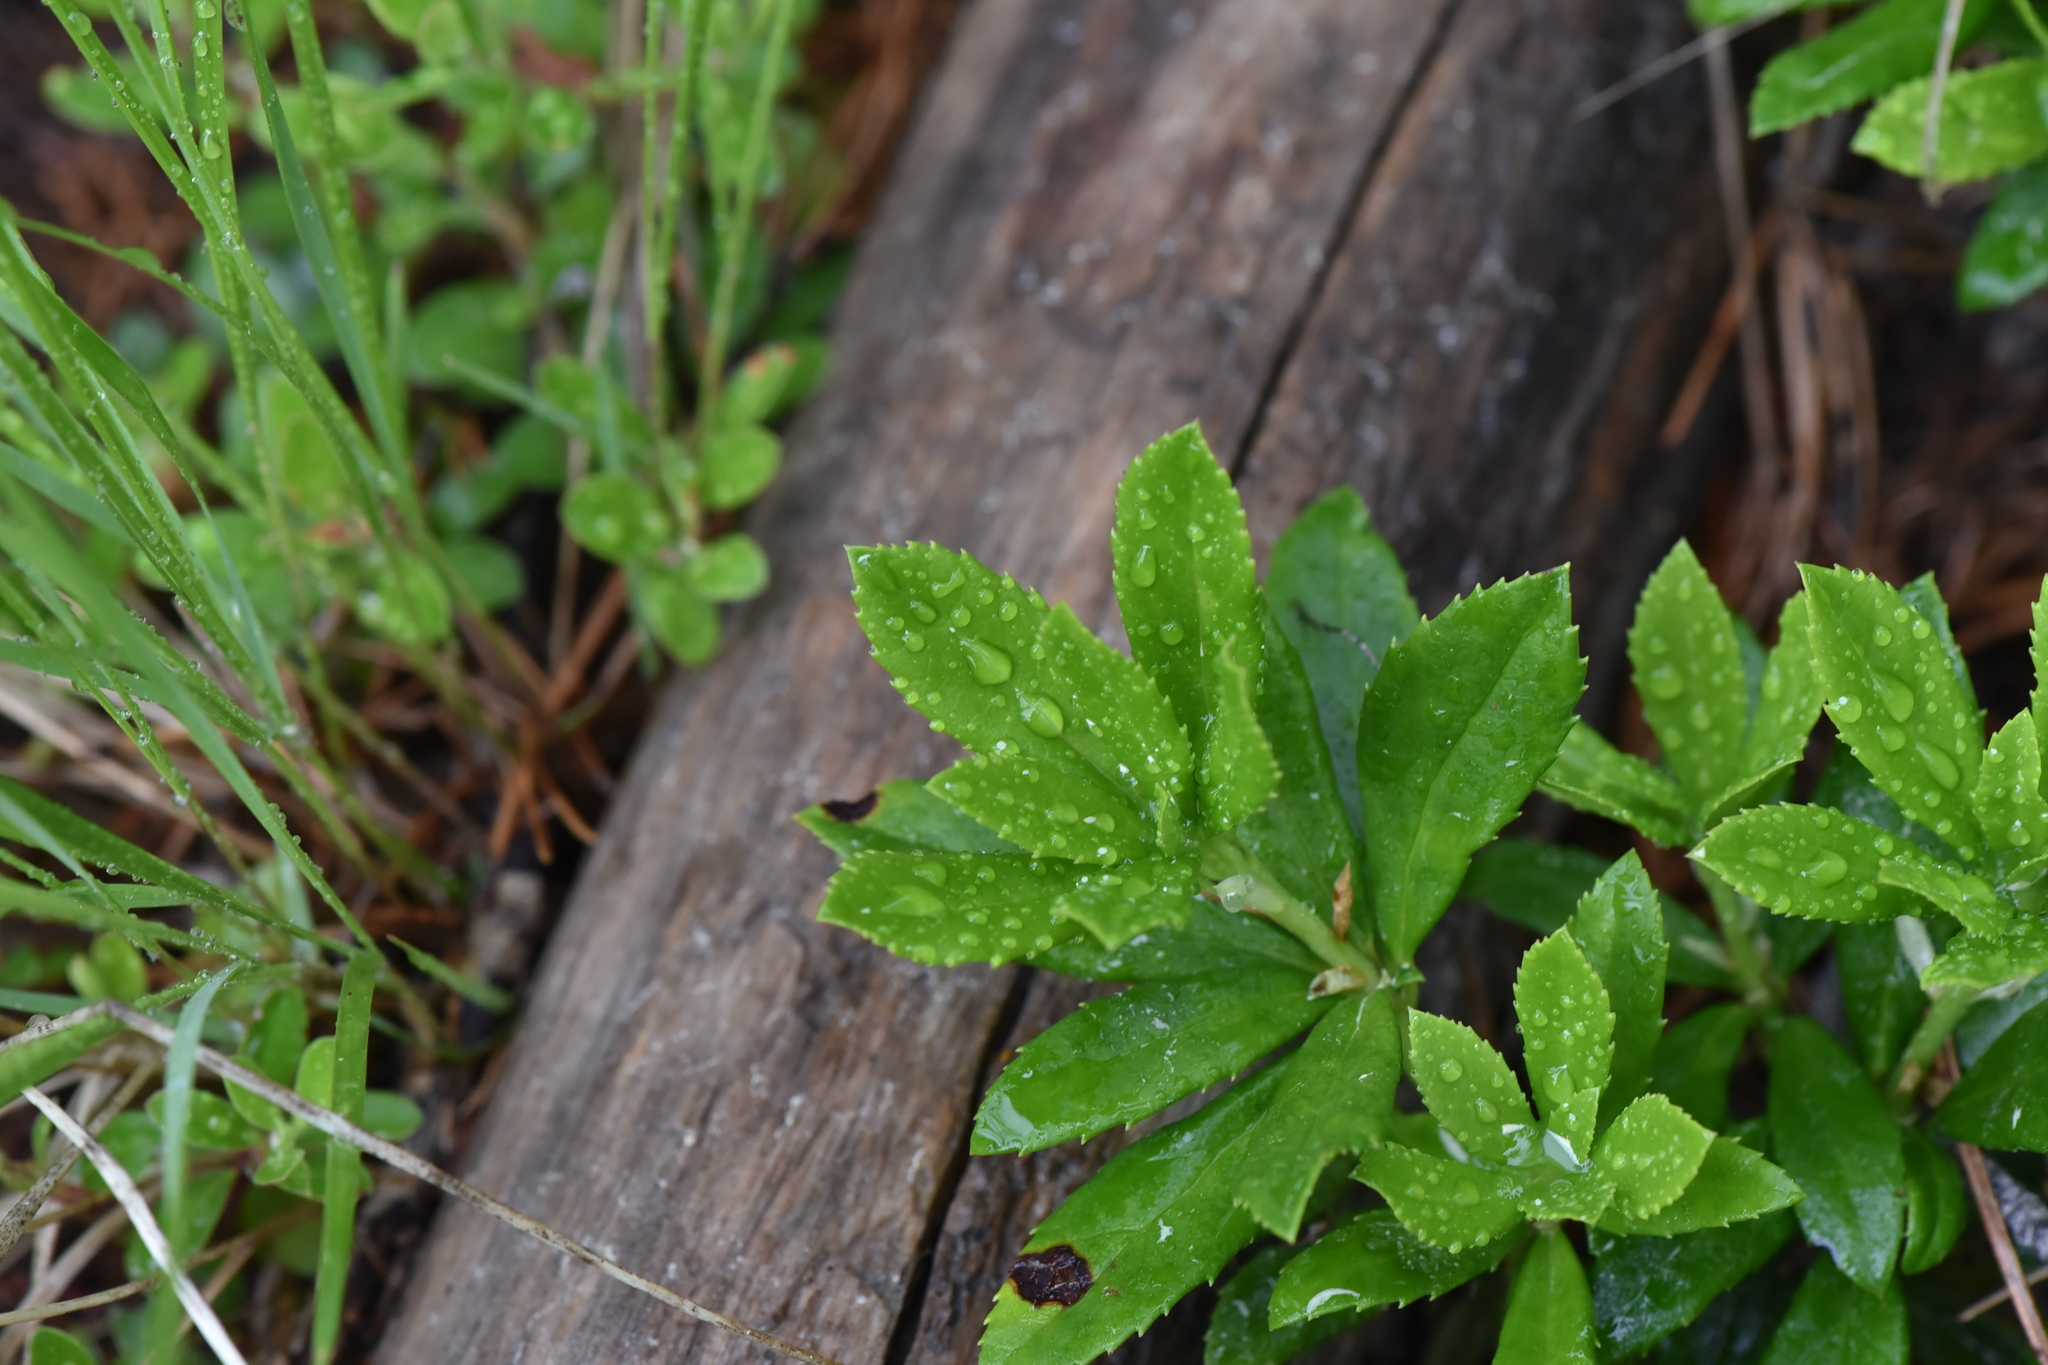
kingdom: Plantae
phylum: Tracheophyta
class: Magnoliopsida
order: Ericales
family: Ericaceae
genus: Chimaphila
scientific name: Chimaphila umbellata
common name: Pipsissewa
